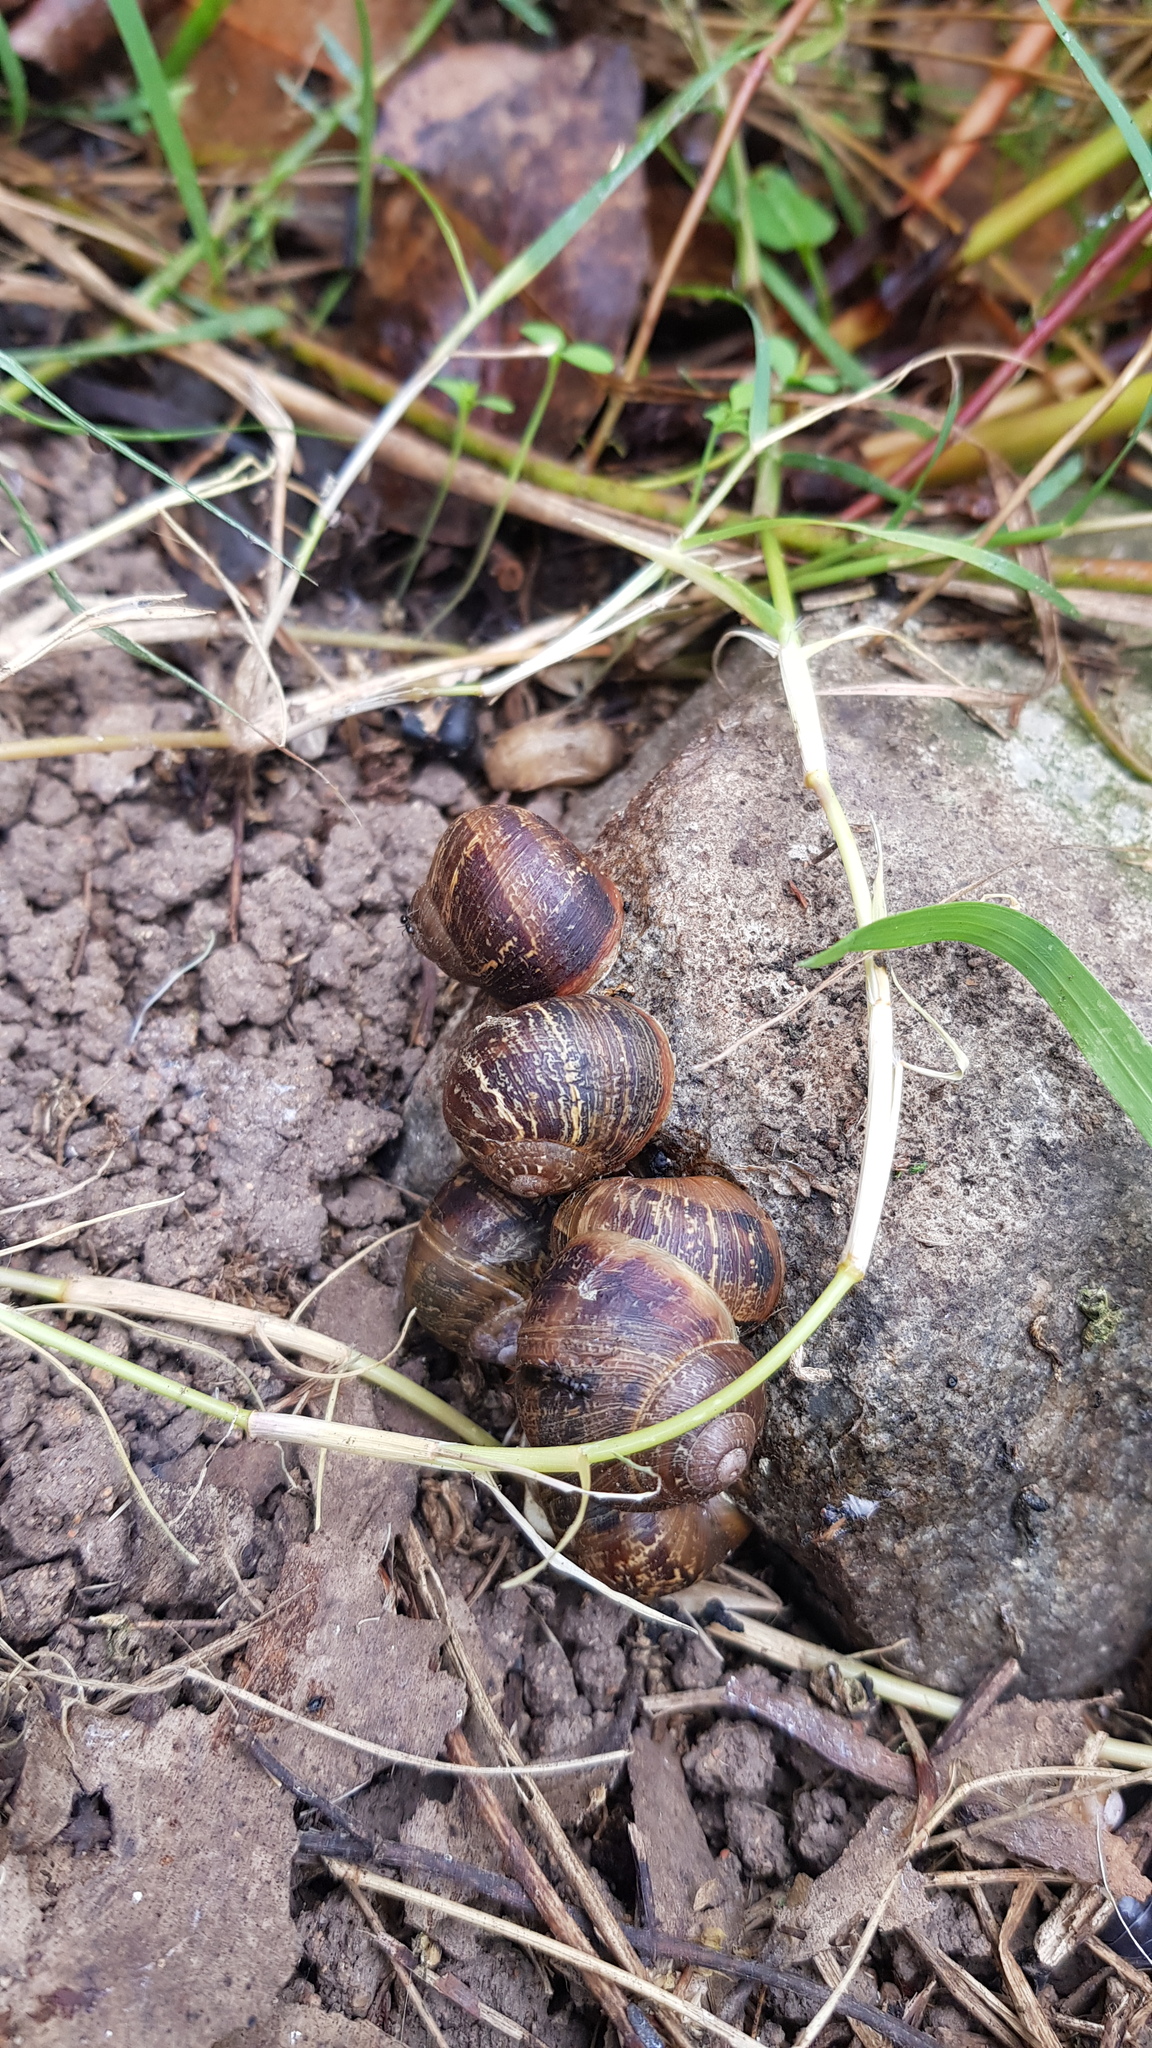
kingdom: Animalia
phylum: Mollusca
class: Gastropoda
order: Stylommatophora
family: Helicidae
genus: Cornu
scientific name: Cornu aspersum
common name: Brown garden snail
